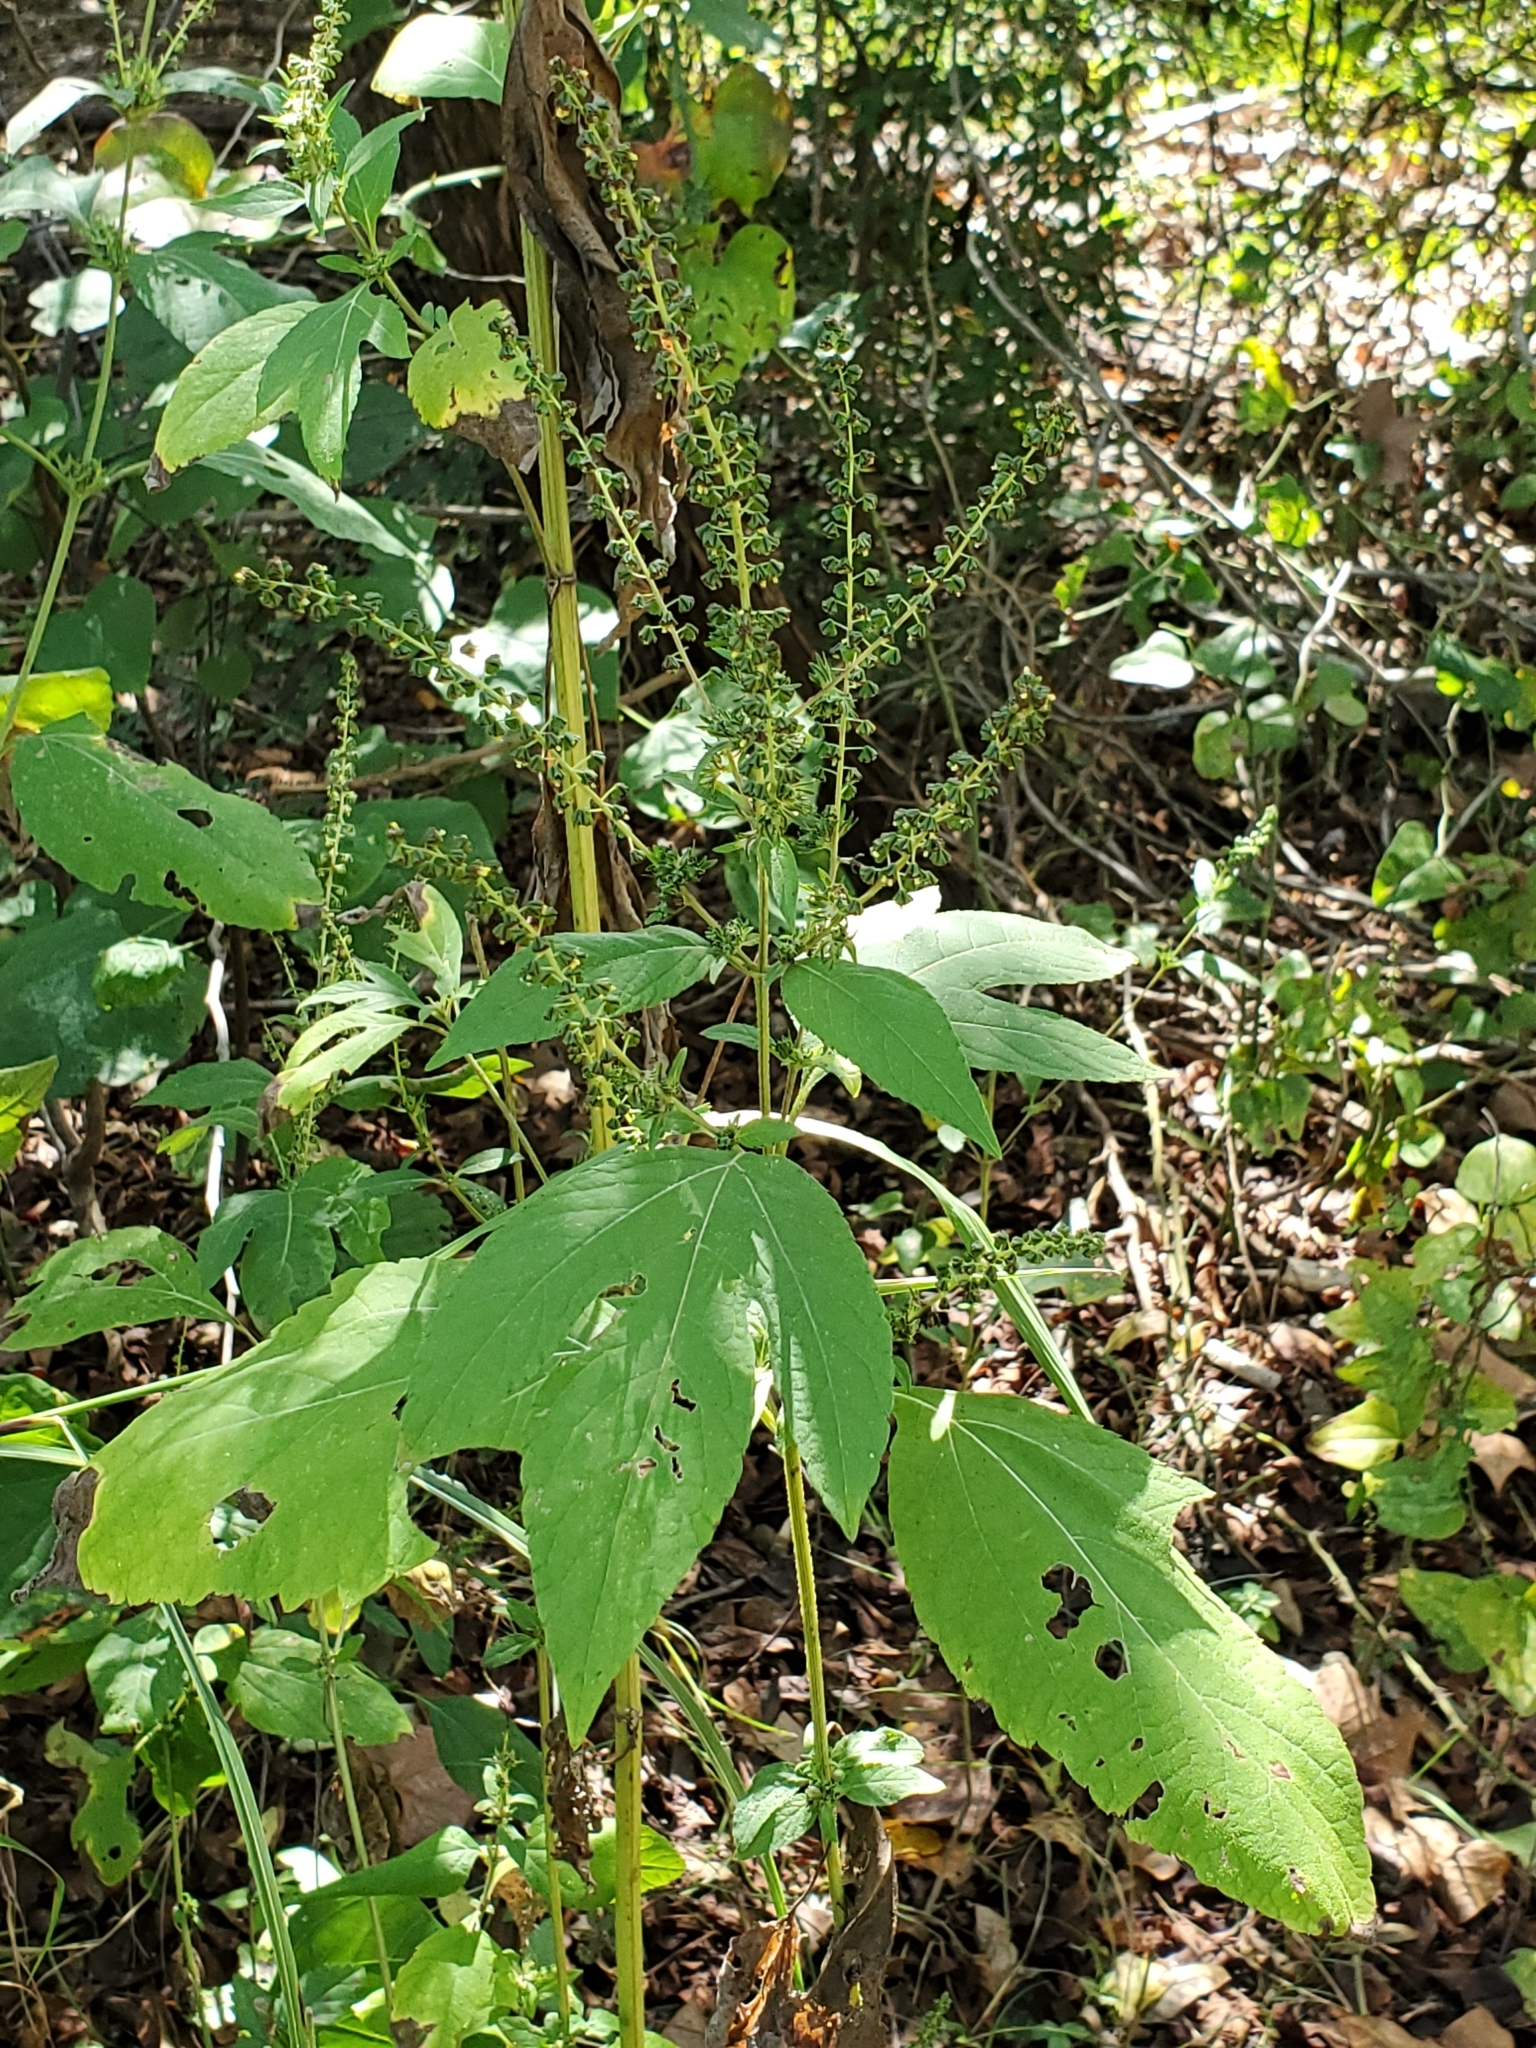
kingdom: Plantae
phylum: Tracheophyta
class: Magnoliopsida
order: Asterales
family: Asteraceae
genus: Ambrosia
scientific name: Ambrosia trifida
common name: Giant ragweed
